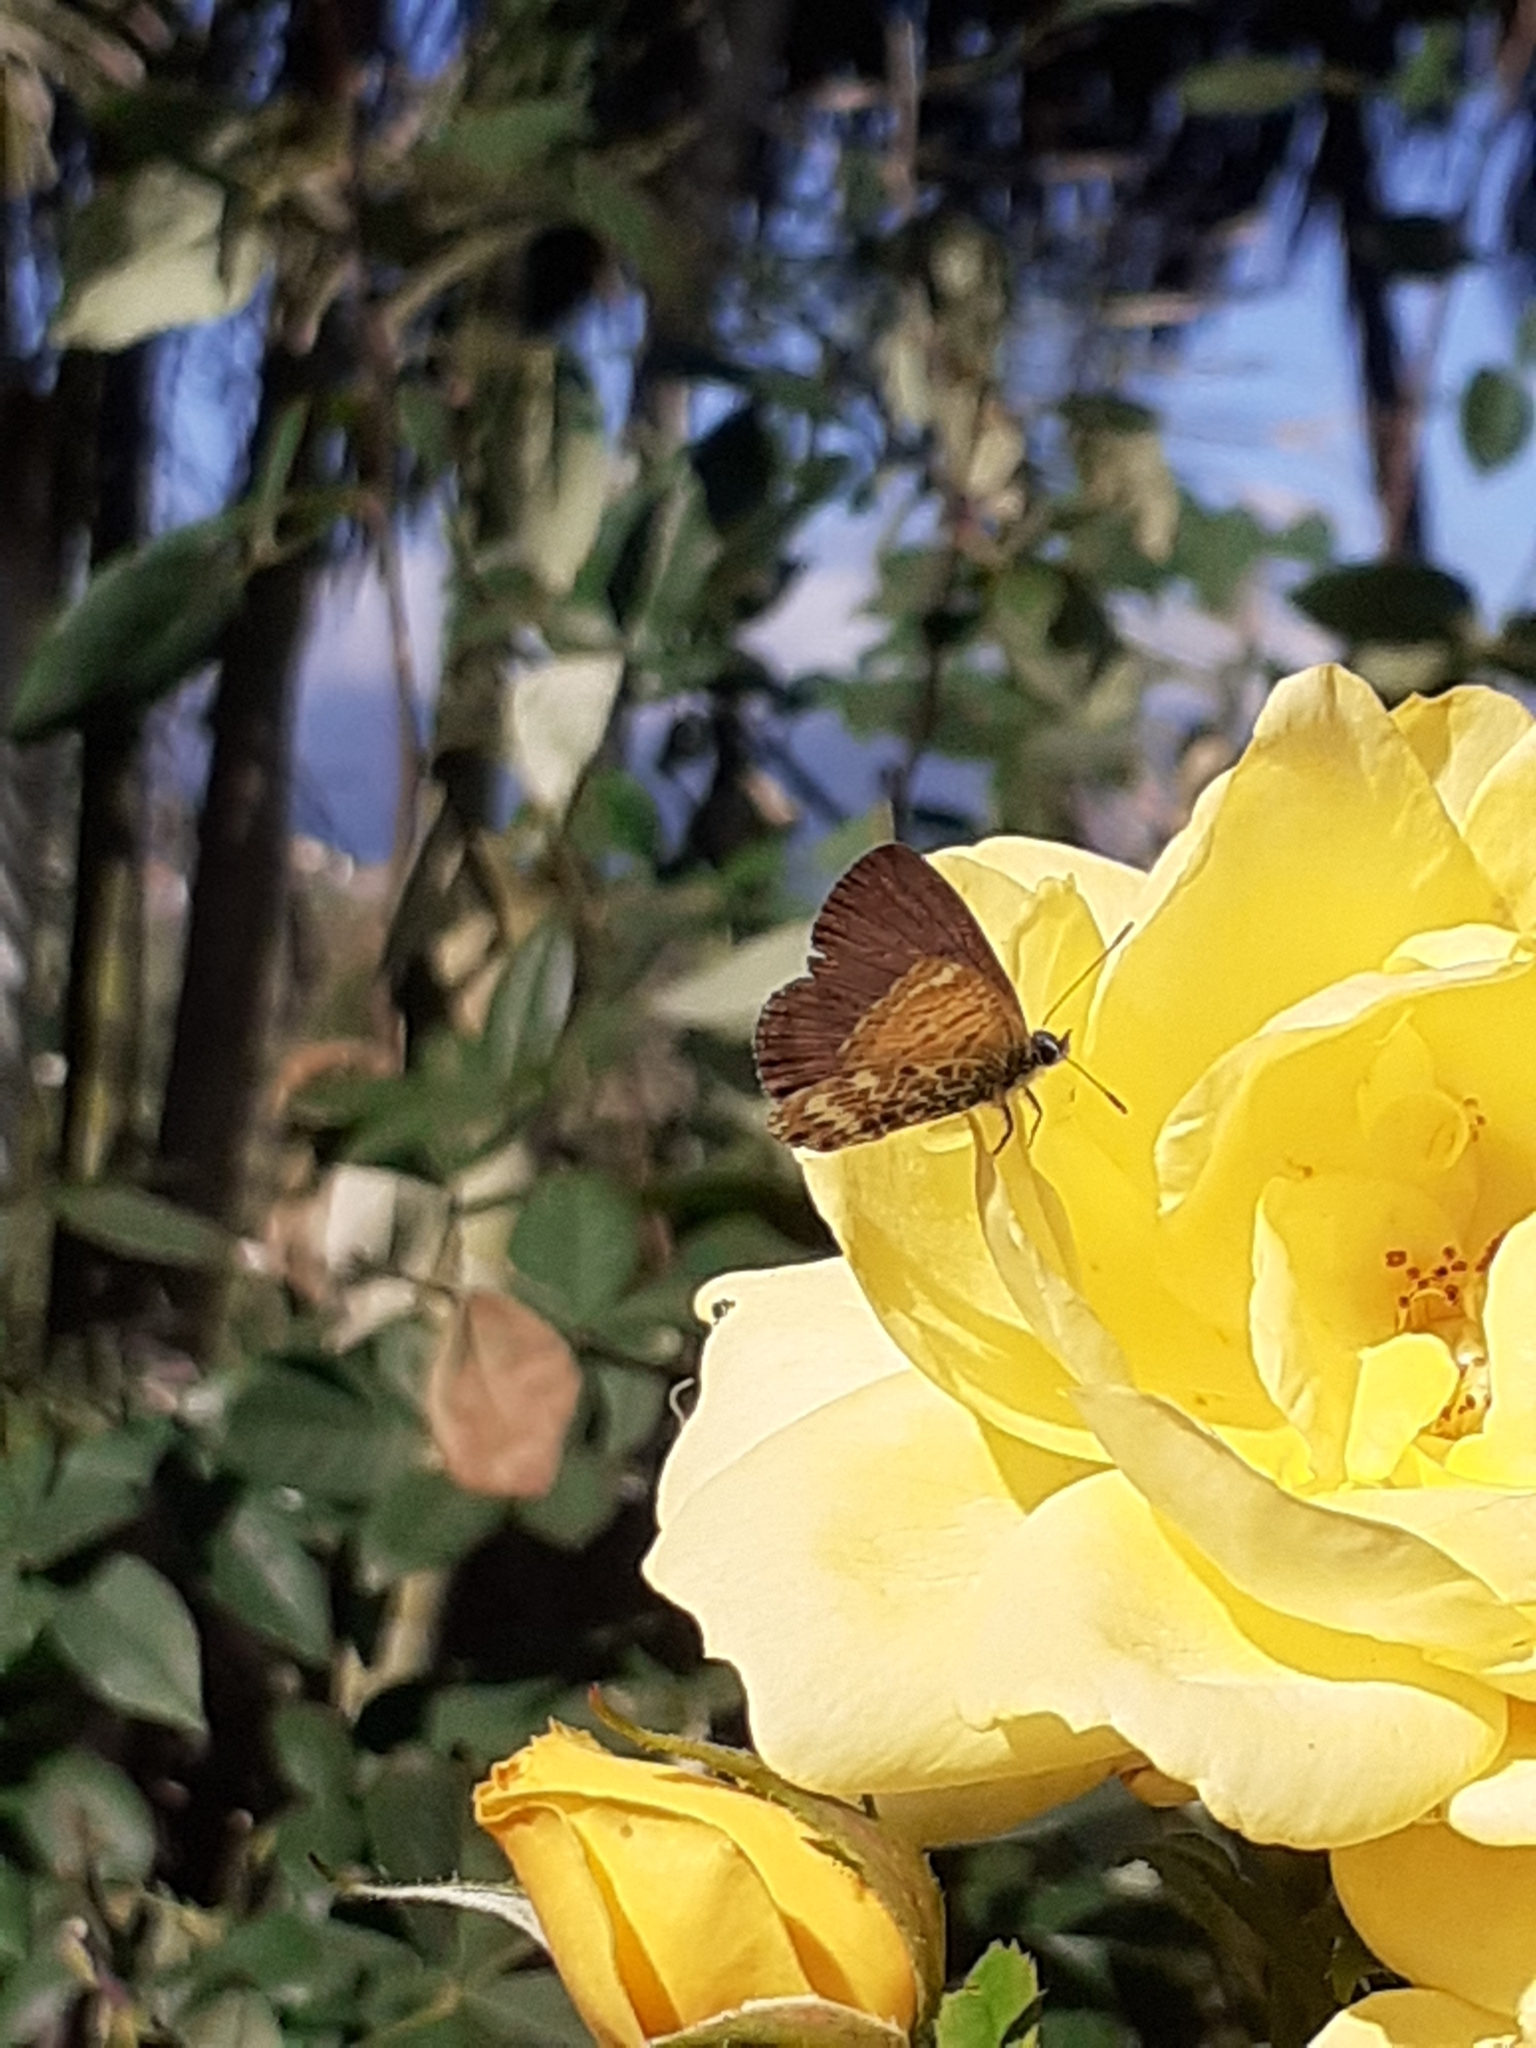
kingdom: Animalia
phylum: Arthropoda
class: Insecta
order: Lepidoptera
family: Lycaenidae
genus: Cyclyrius
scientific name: Cyclyrius webbianus
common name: Canary blue
